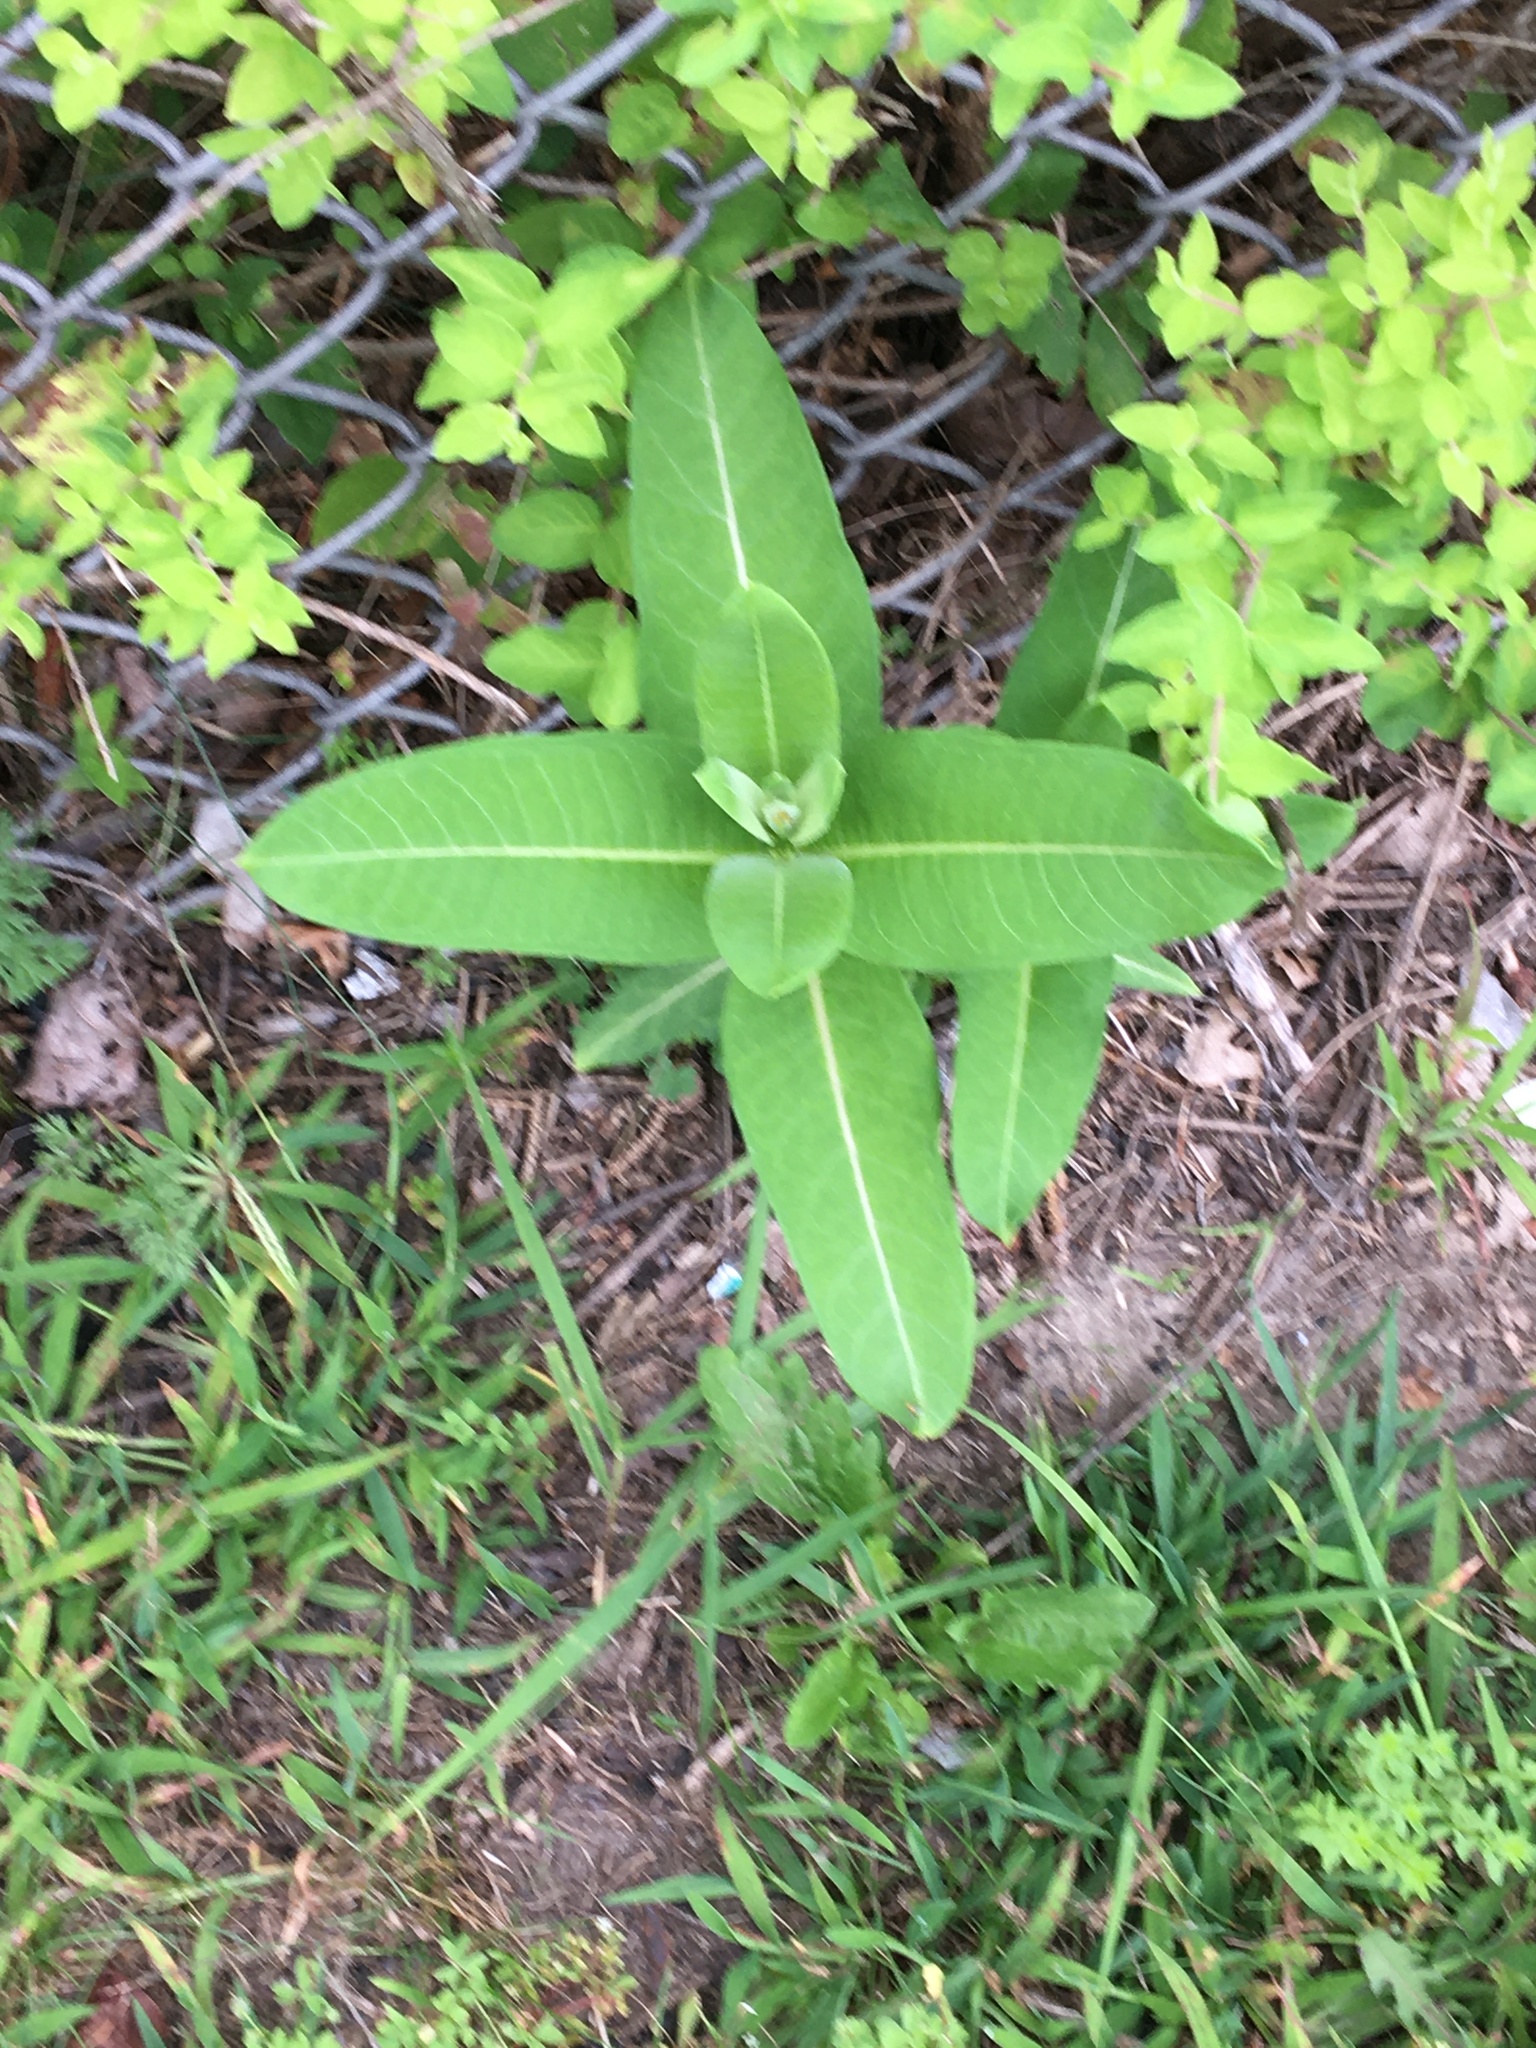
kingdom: Plantae
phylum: Tracheophyta
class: Magnoliopsida
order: Gentianales
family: Apocynaceae
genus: Asclepias
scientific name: Asclepias syriaca
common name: Common milkweed
